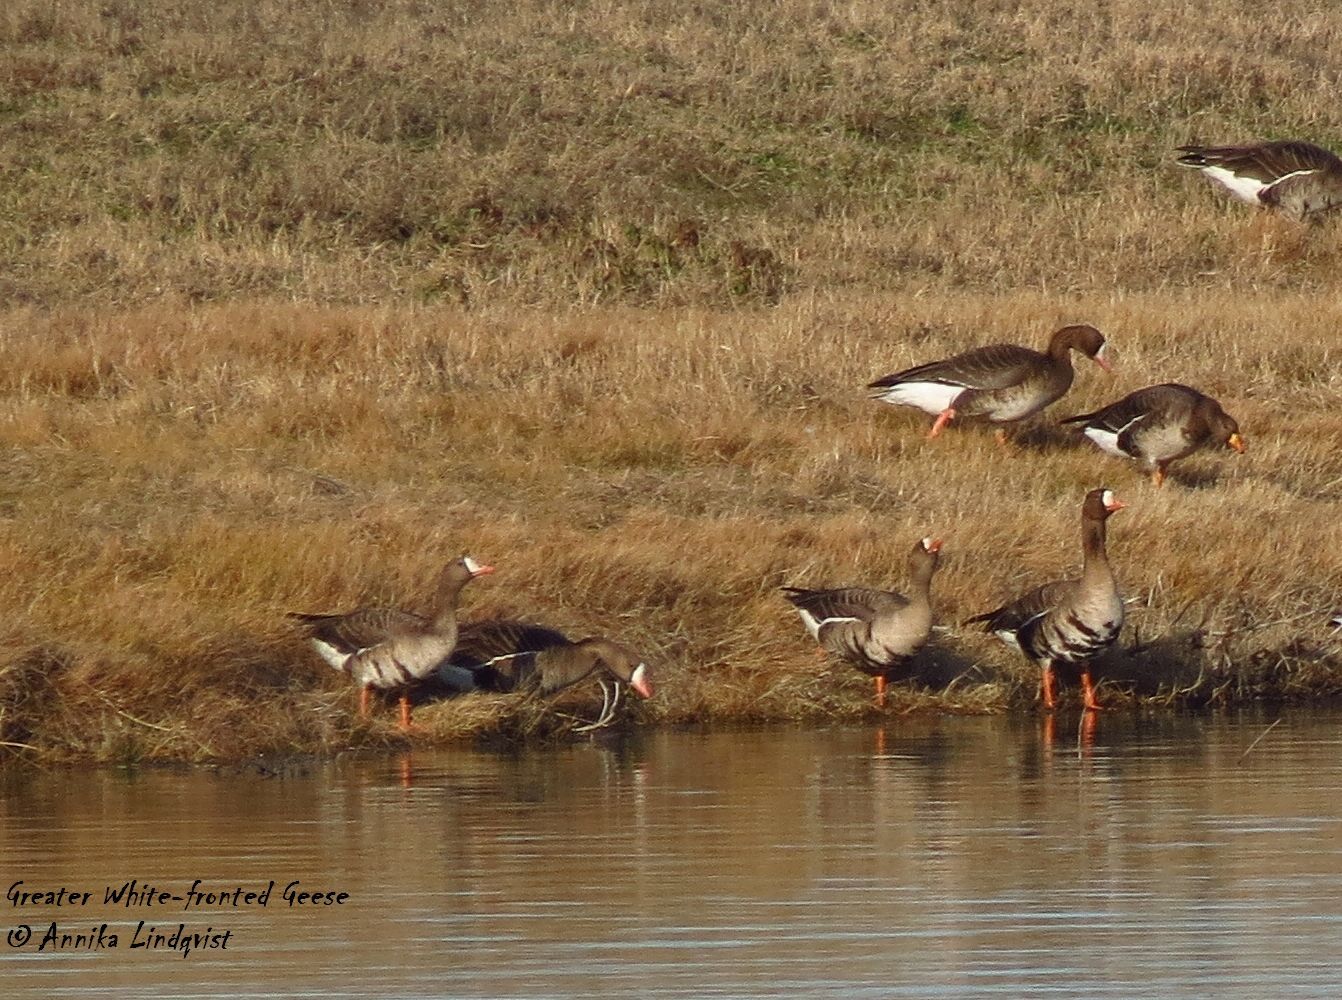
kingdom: Animalia
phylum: Chordata
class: Aves
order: Anseriformes
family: Anatidae
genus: Anser
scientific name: Anser albifrons
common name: Greater white-fronted goose
